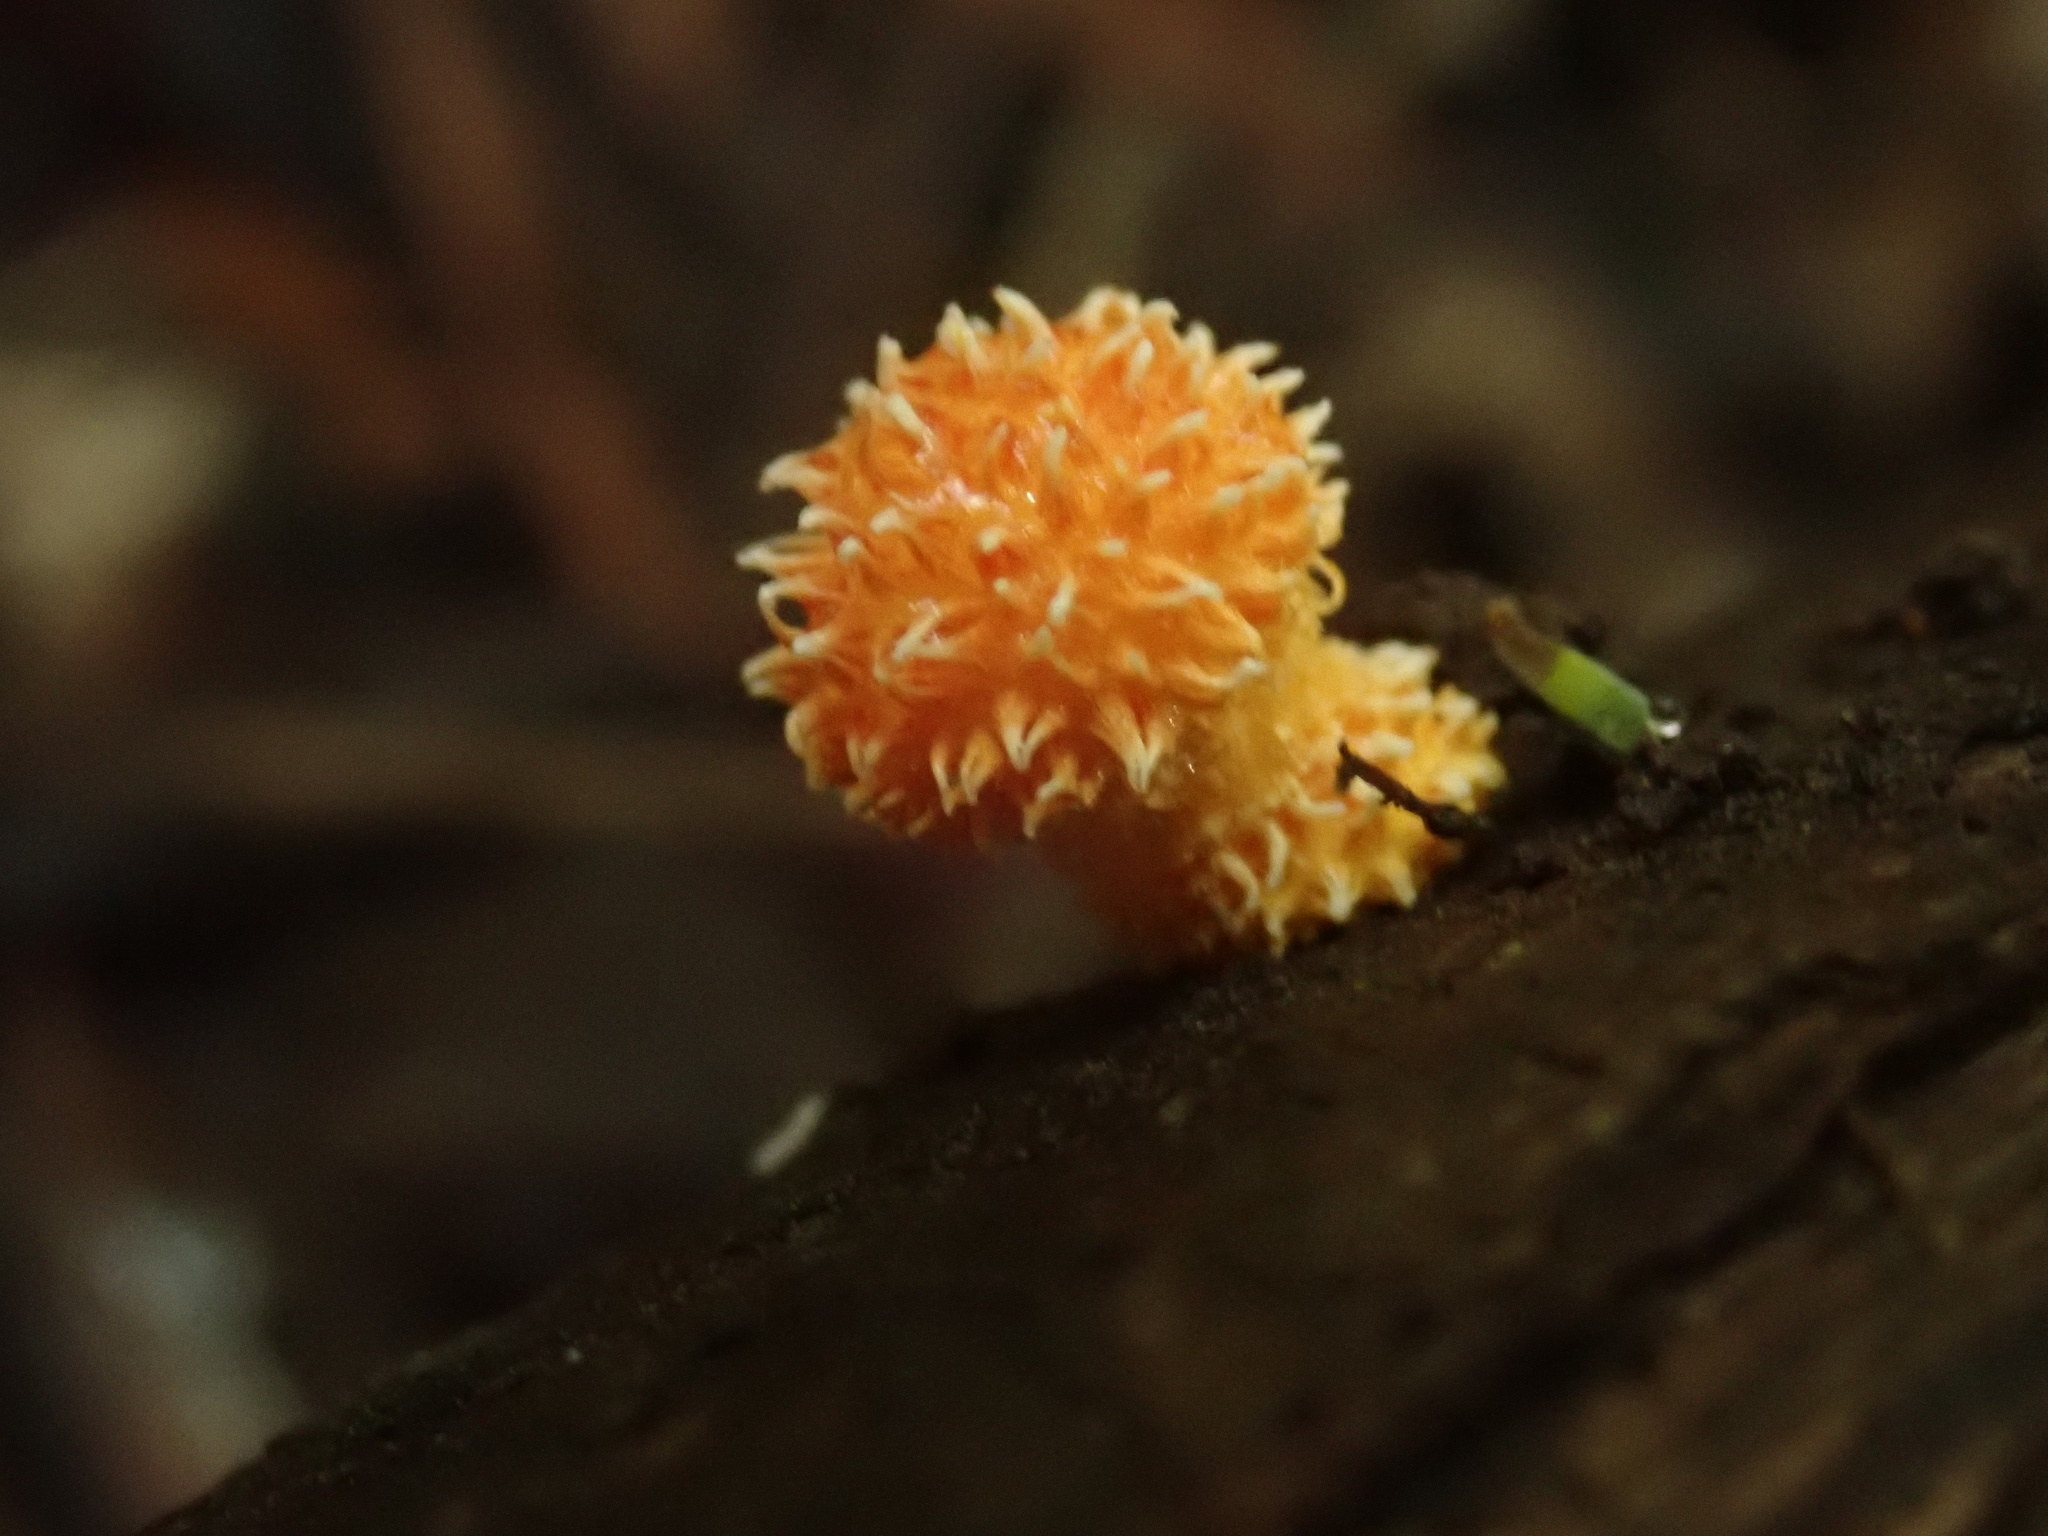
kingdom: Fungi
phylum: Basidiomycota
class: Agaricomycetes
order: Agaricales
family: Physalacriaceae
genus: Cyptotrama
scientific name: Cyptotrama asprata
